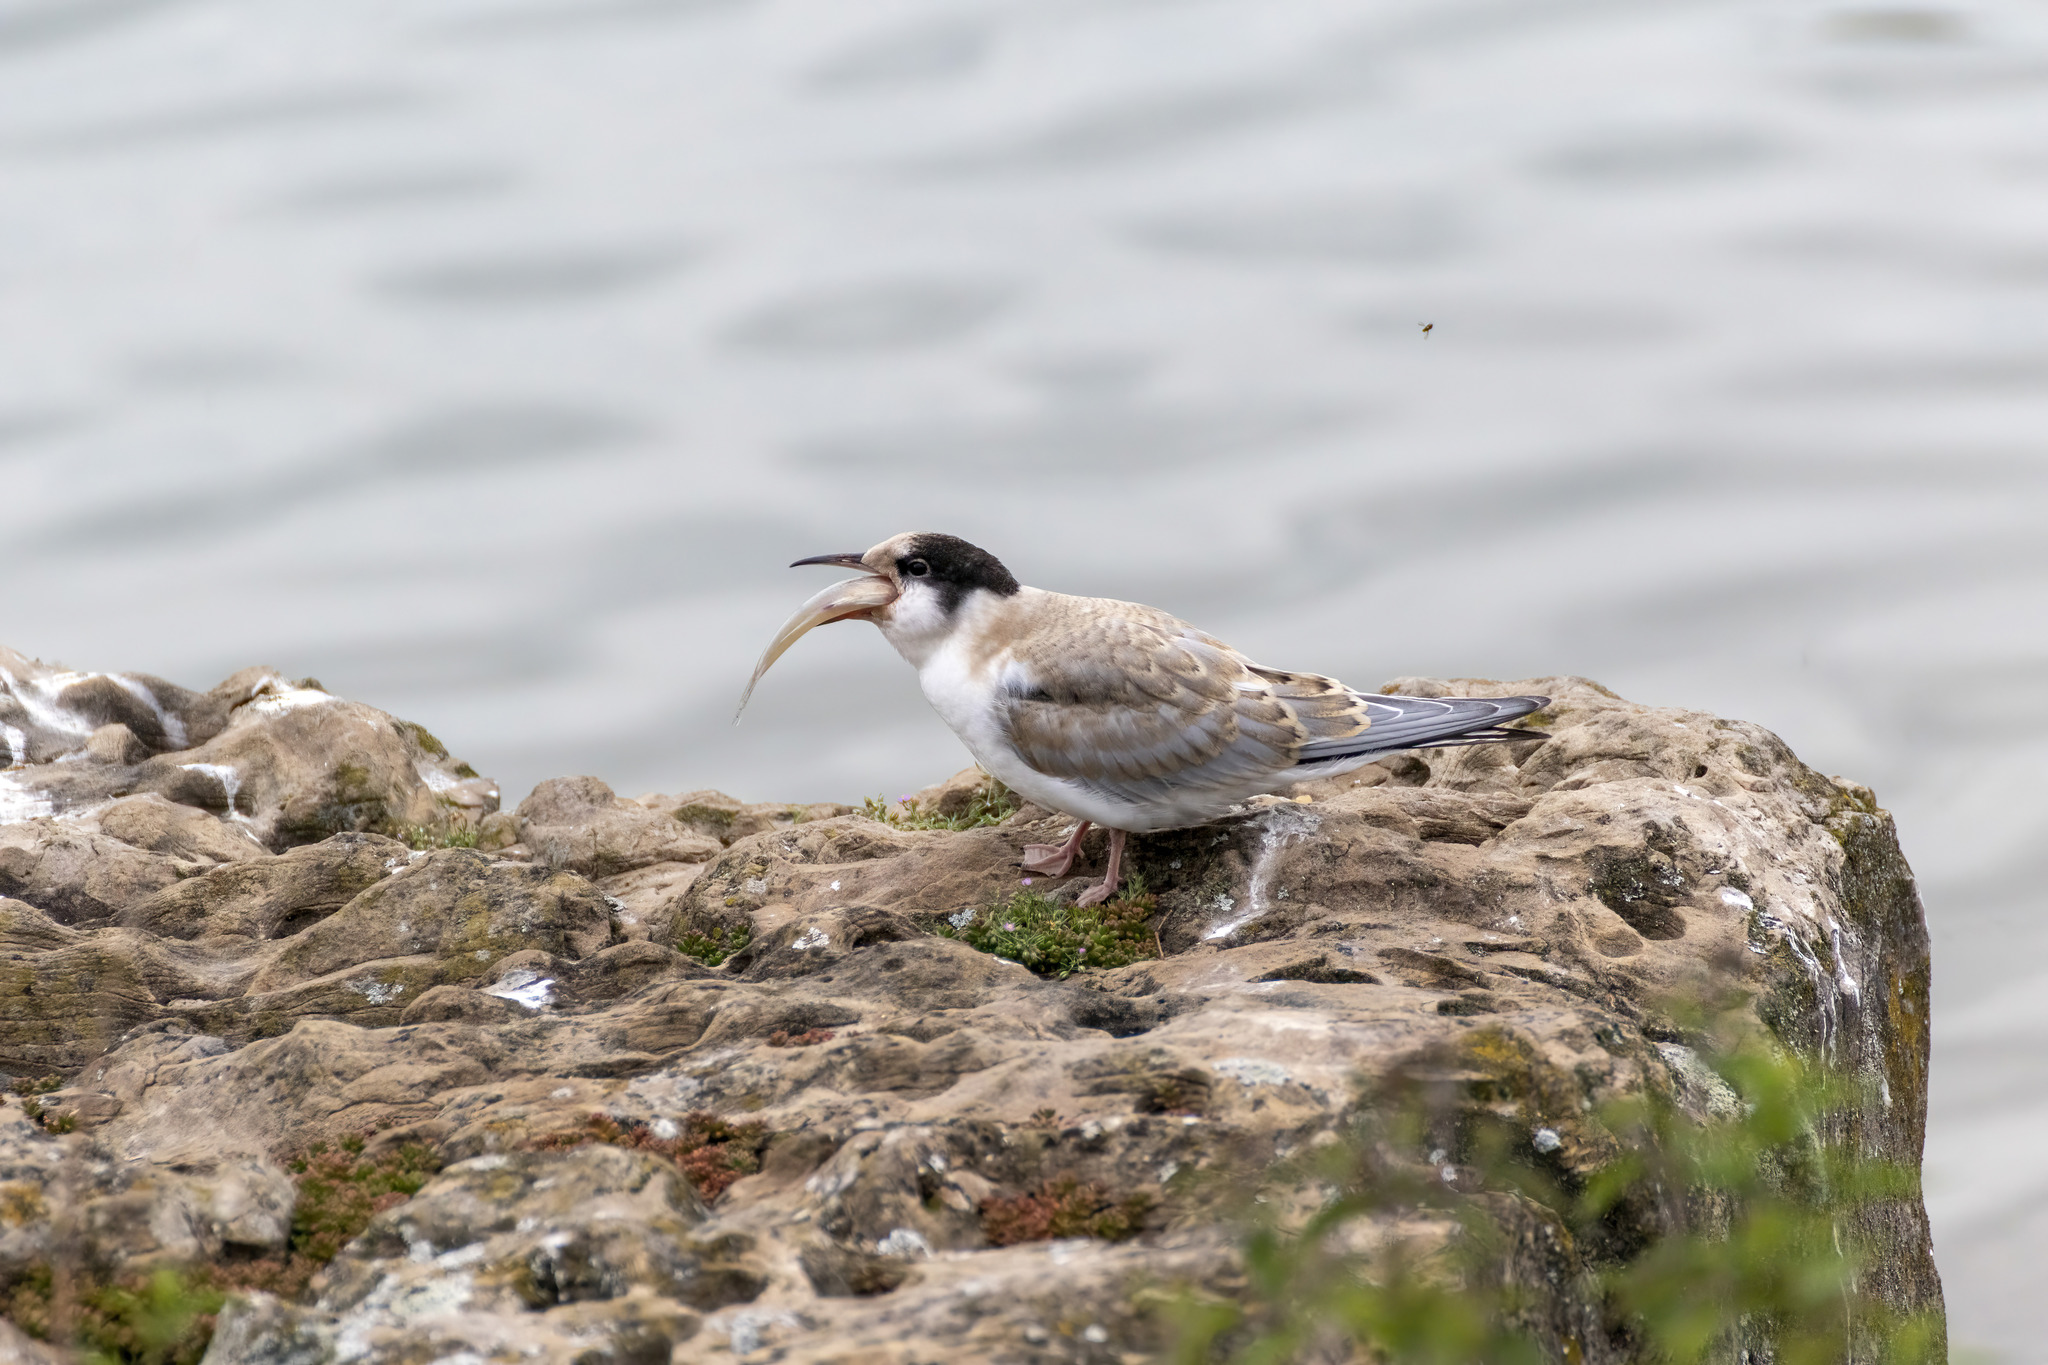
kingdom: Animalia
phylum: Chordata
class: Aves
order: Charadriiformes
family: Laridae
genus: Sterna
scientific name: Sterna hirundo
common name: Common tern
